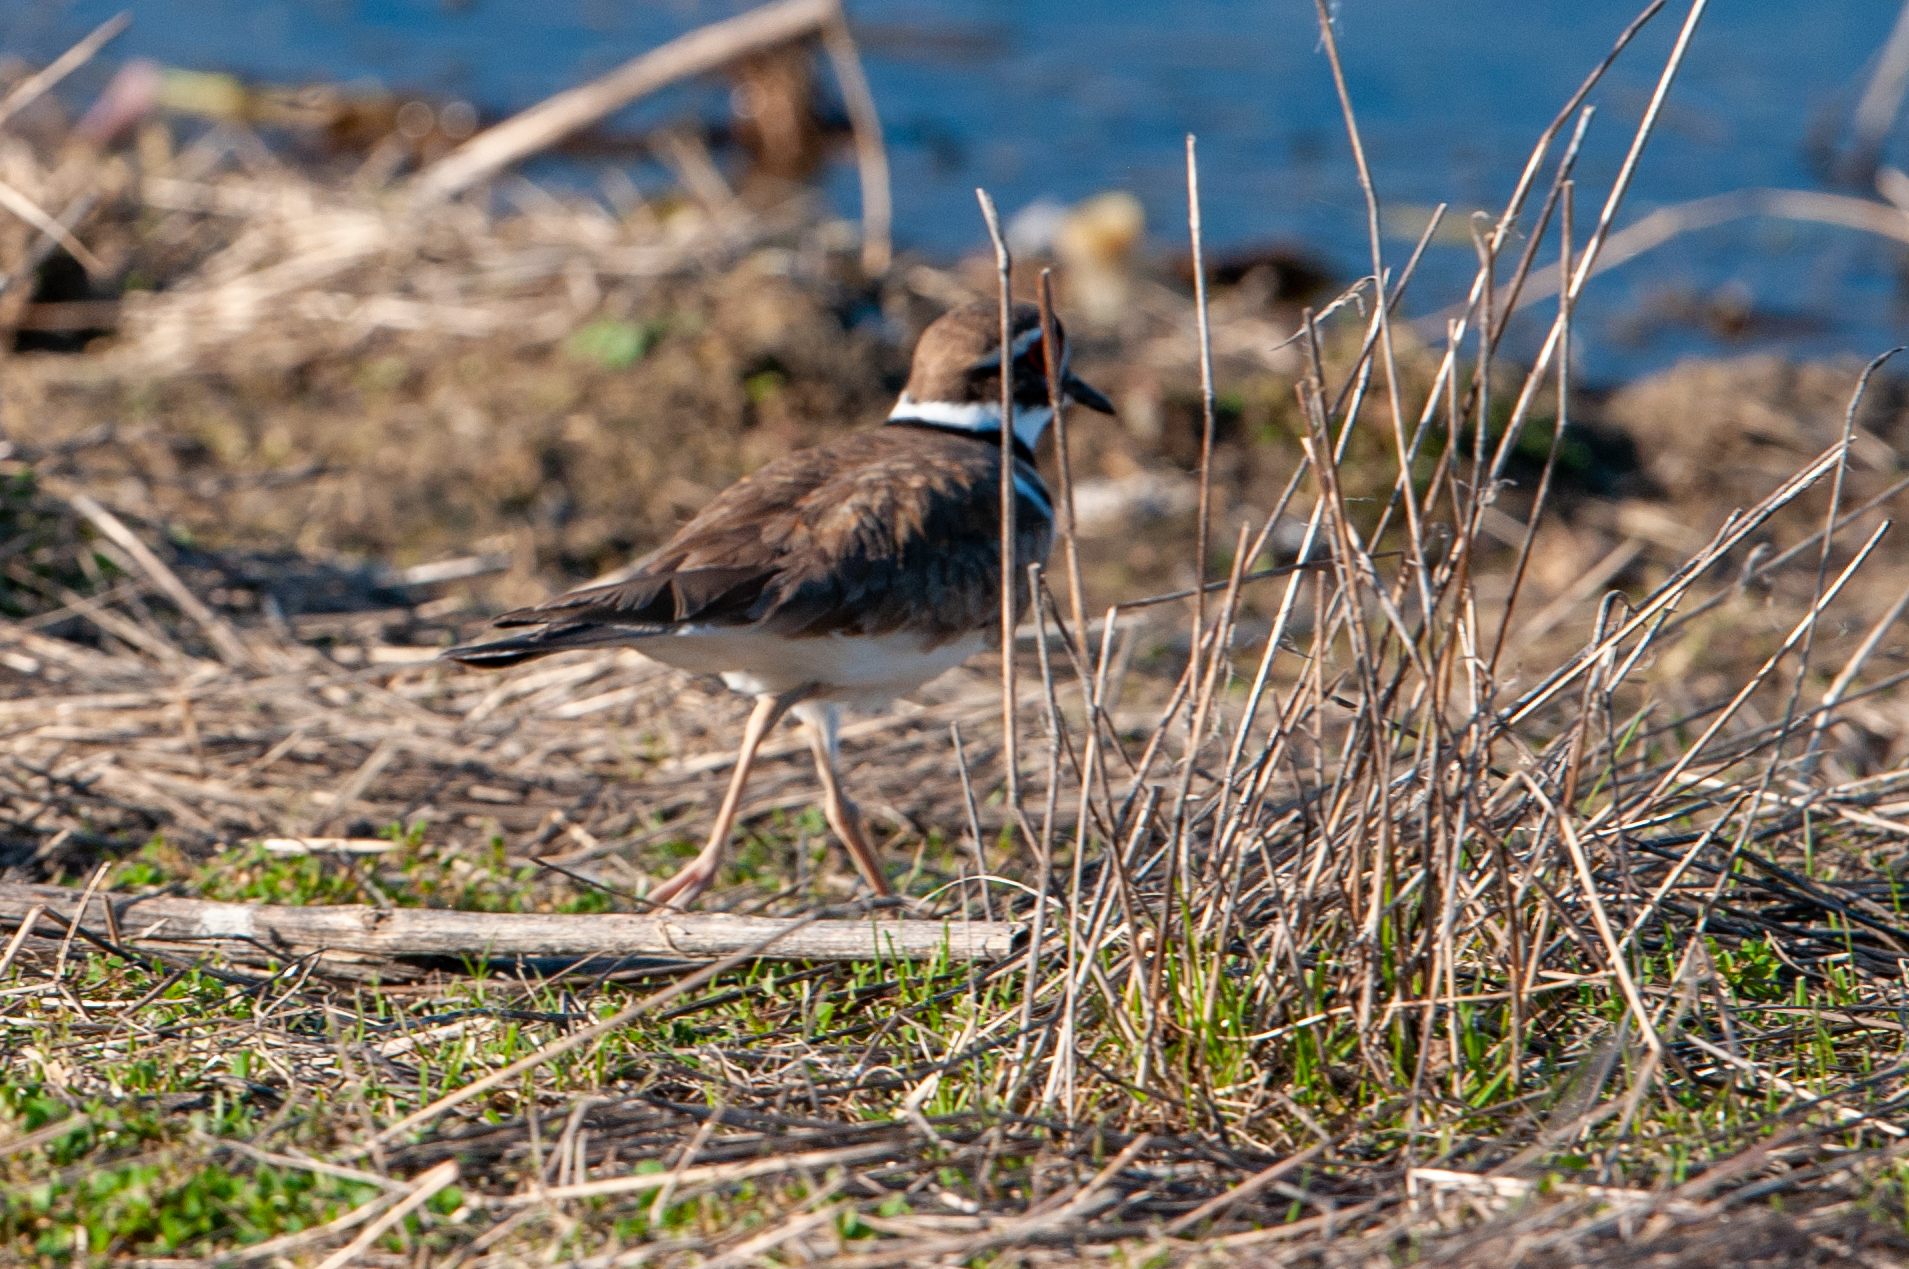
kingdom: Animalia
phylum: Chordata
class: Aves
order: Charadriiformes
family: Charadriidae
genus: Charadrius
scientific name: Charadrius vociferus
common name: Killdeer
